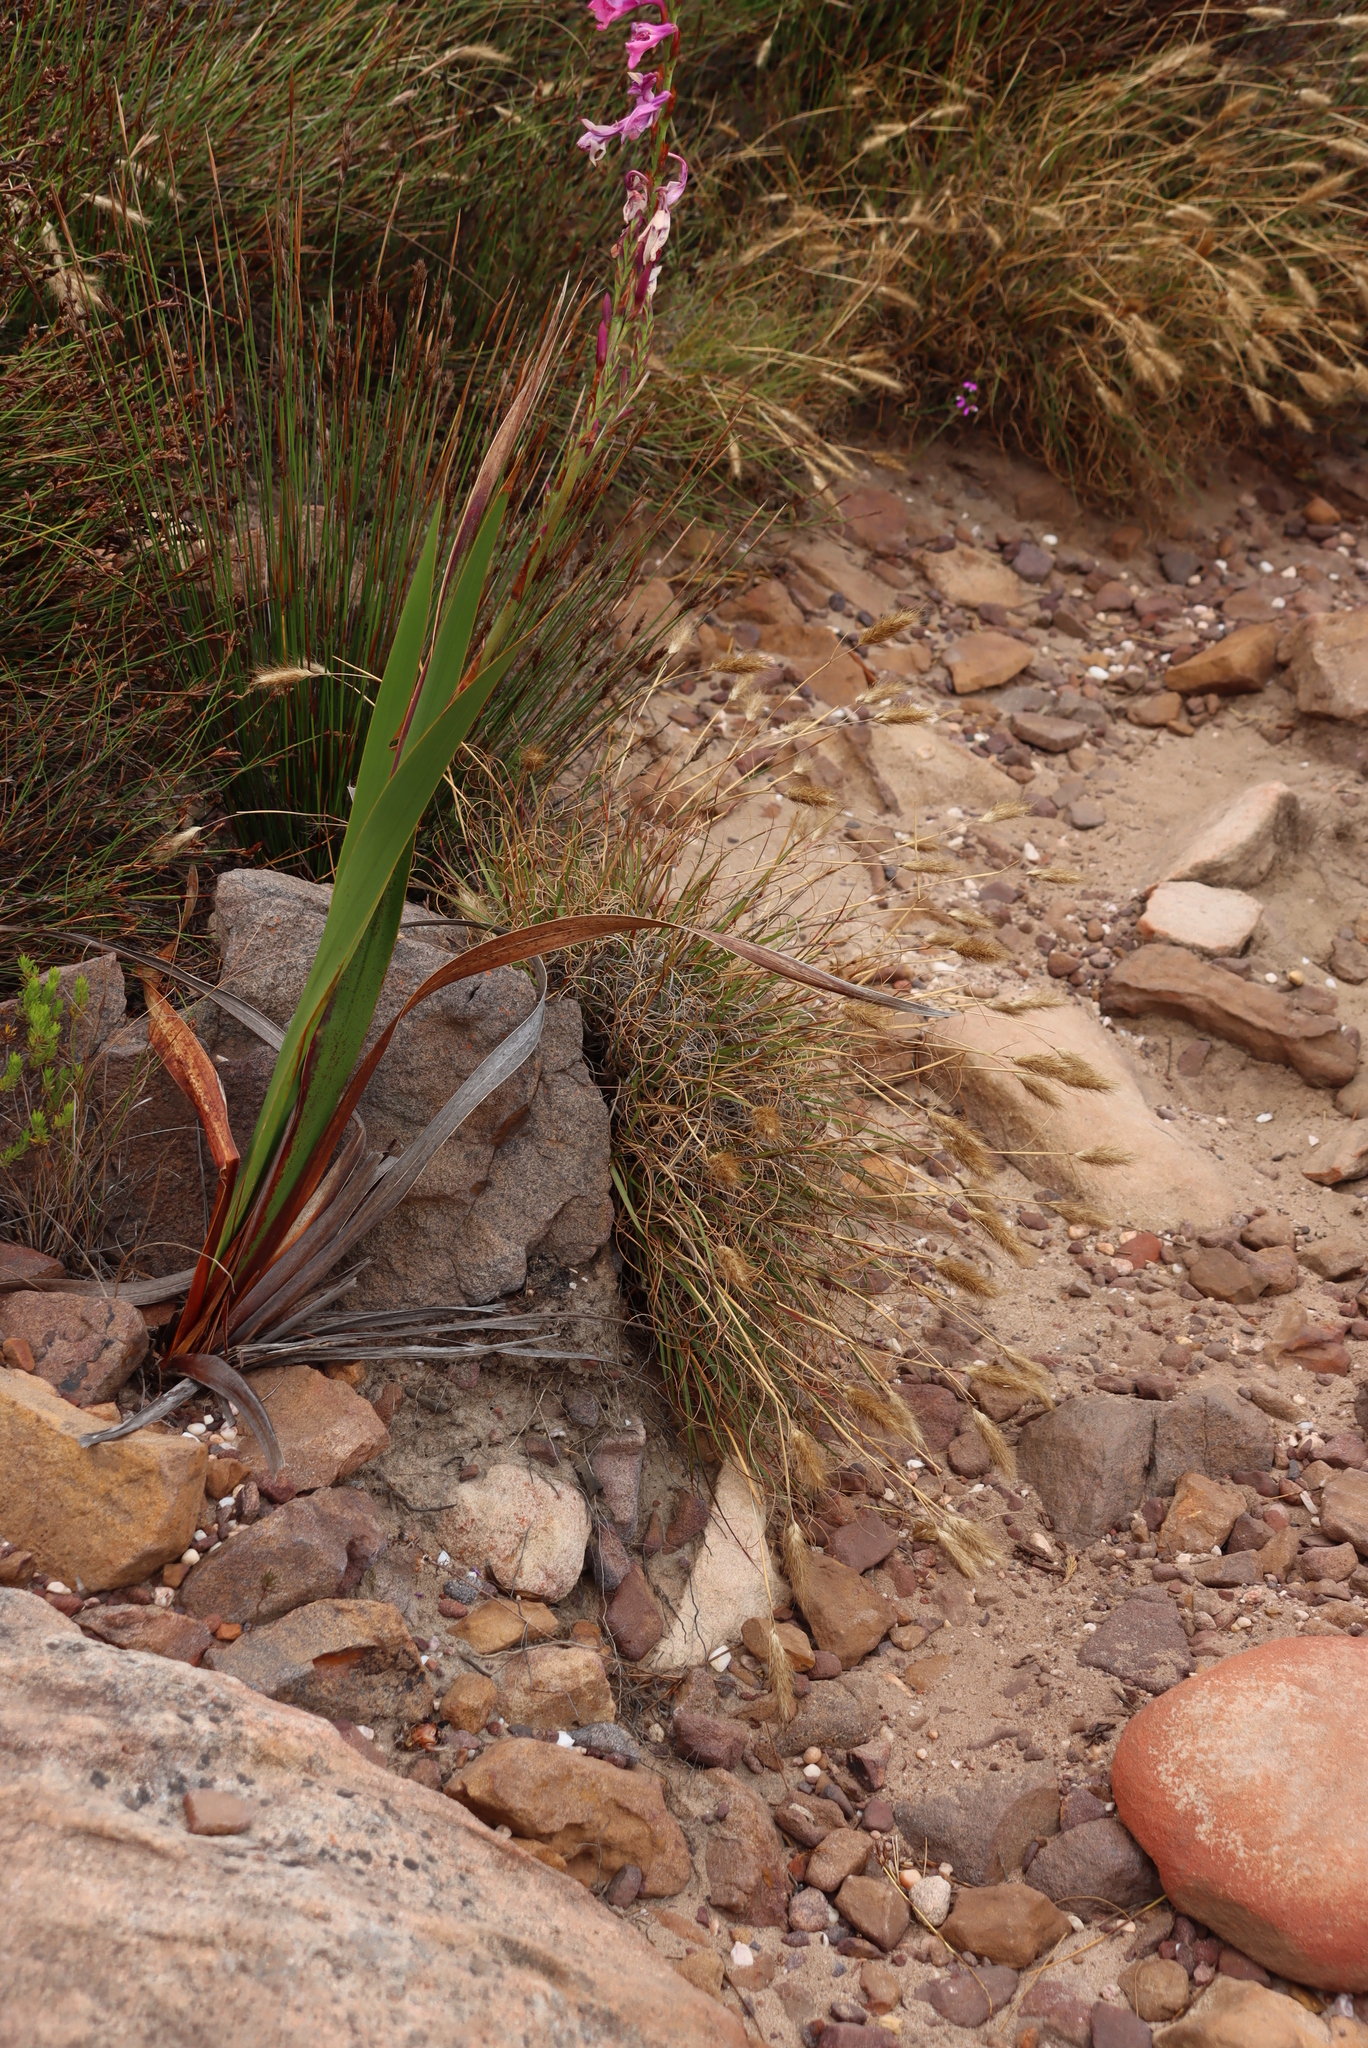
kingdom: Plantae
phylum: Tracheophyta
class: Liliopsida
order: Asparagales
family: Iridaceae
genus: Watsonia
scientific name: Watsonia borbonica
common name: Bugle-lily
